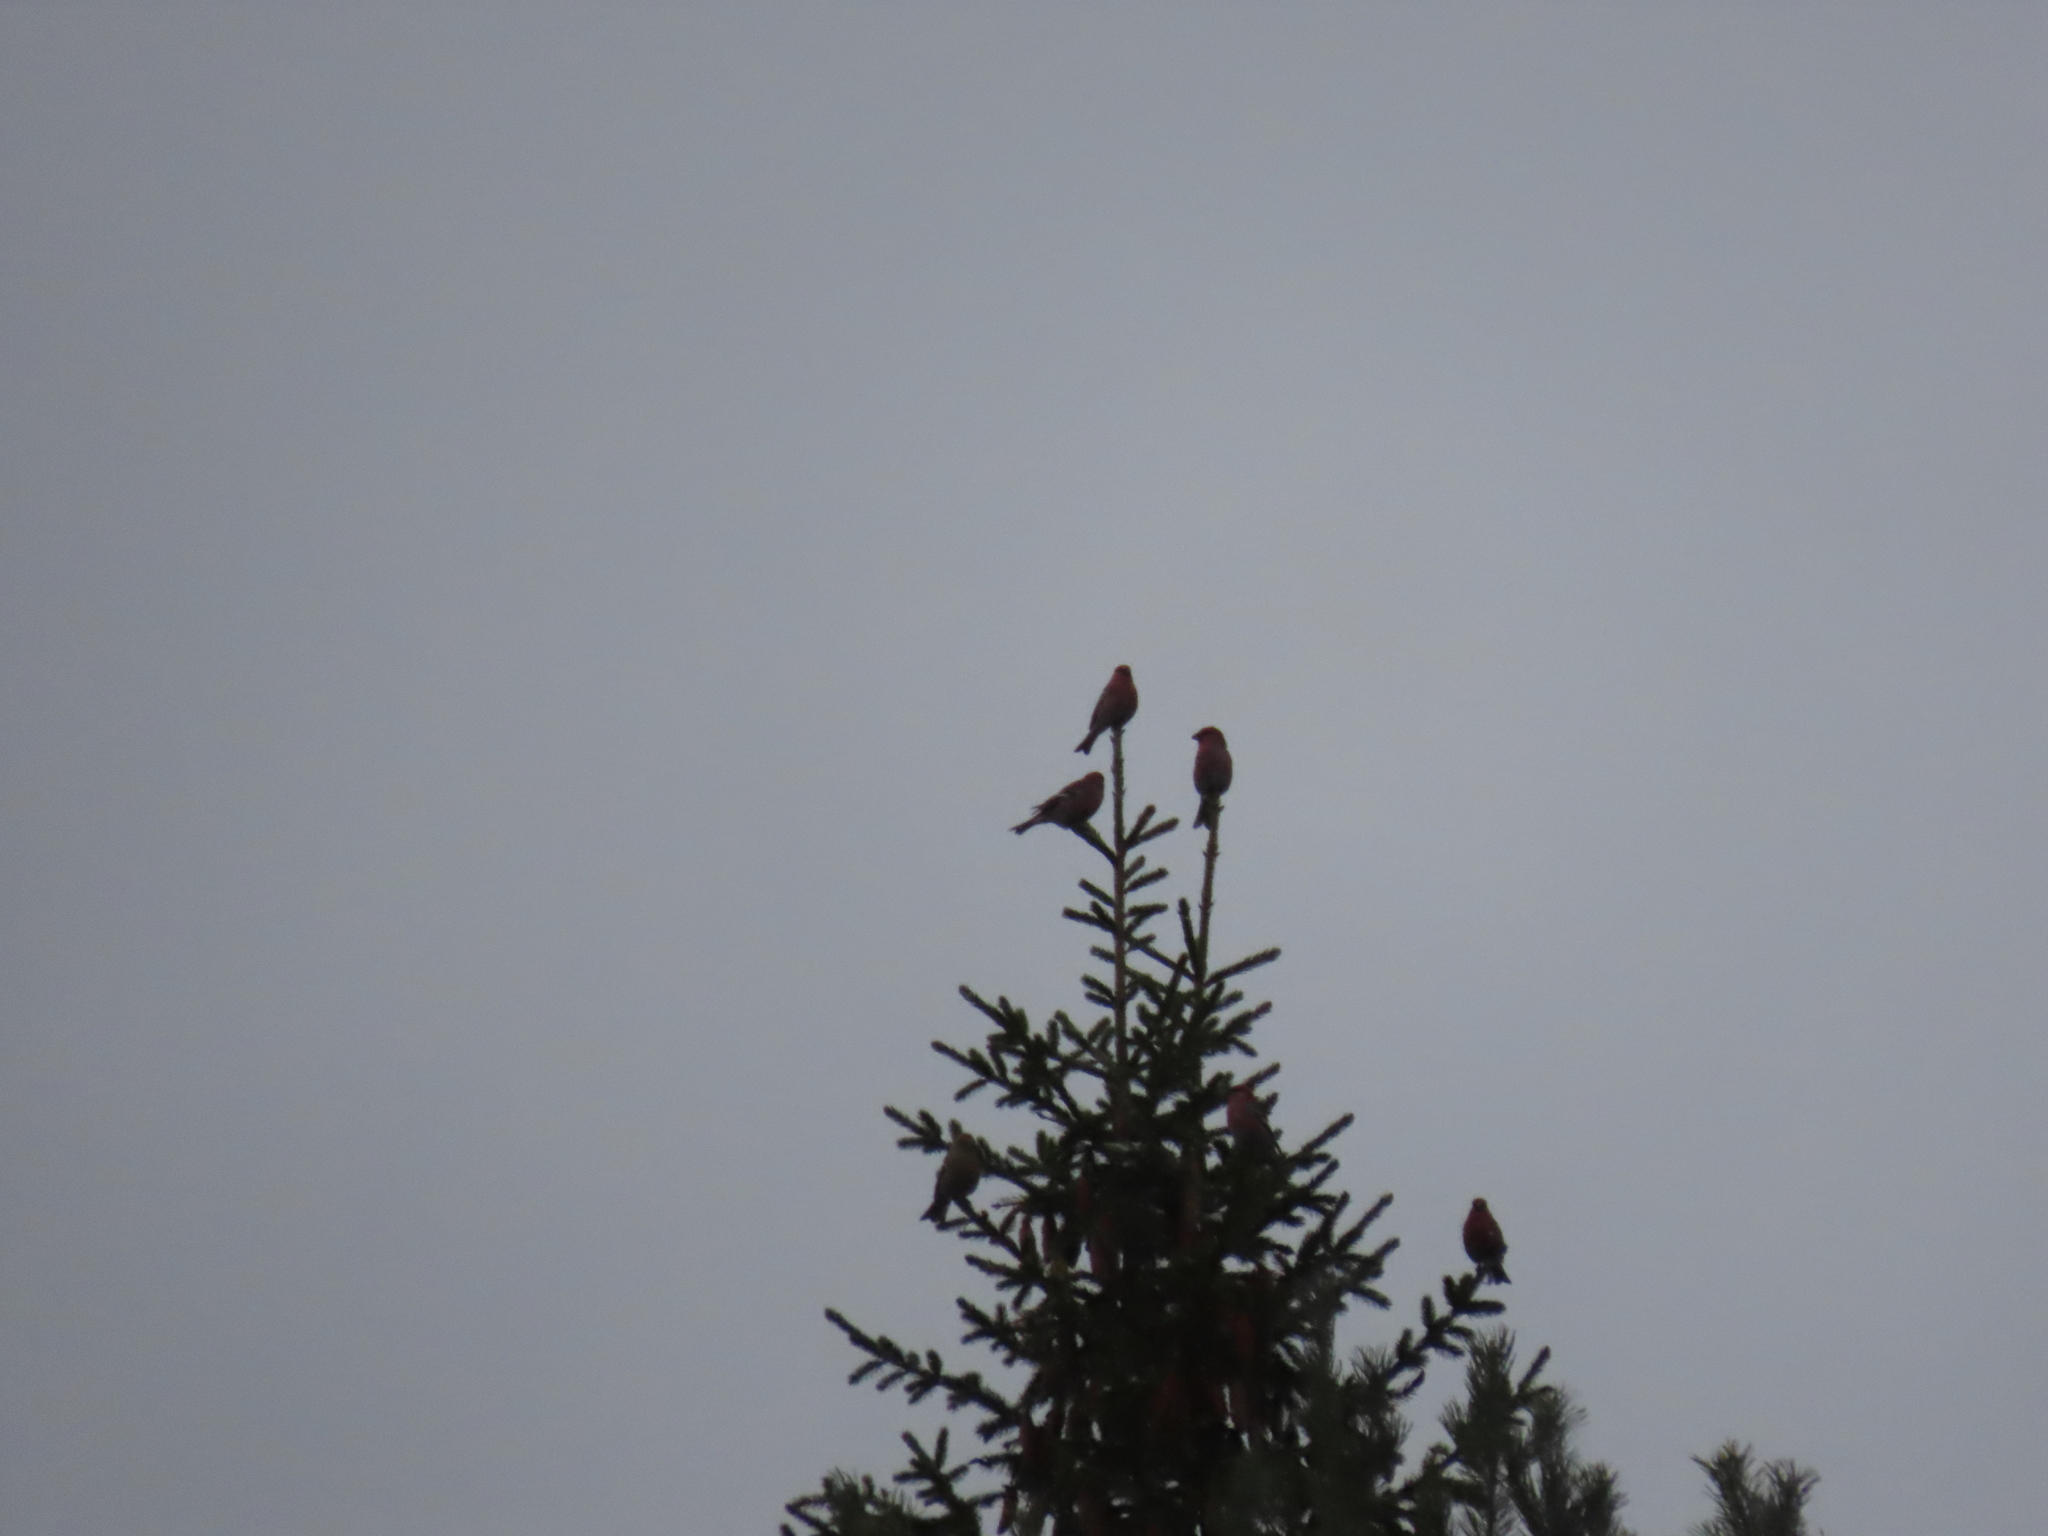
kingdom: Animalia
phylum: Chordata
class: Aves
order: Passeriformes
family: Fringillidae
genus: Pinicola
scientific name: Pinicola enucleator
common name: Pine grosbeak
